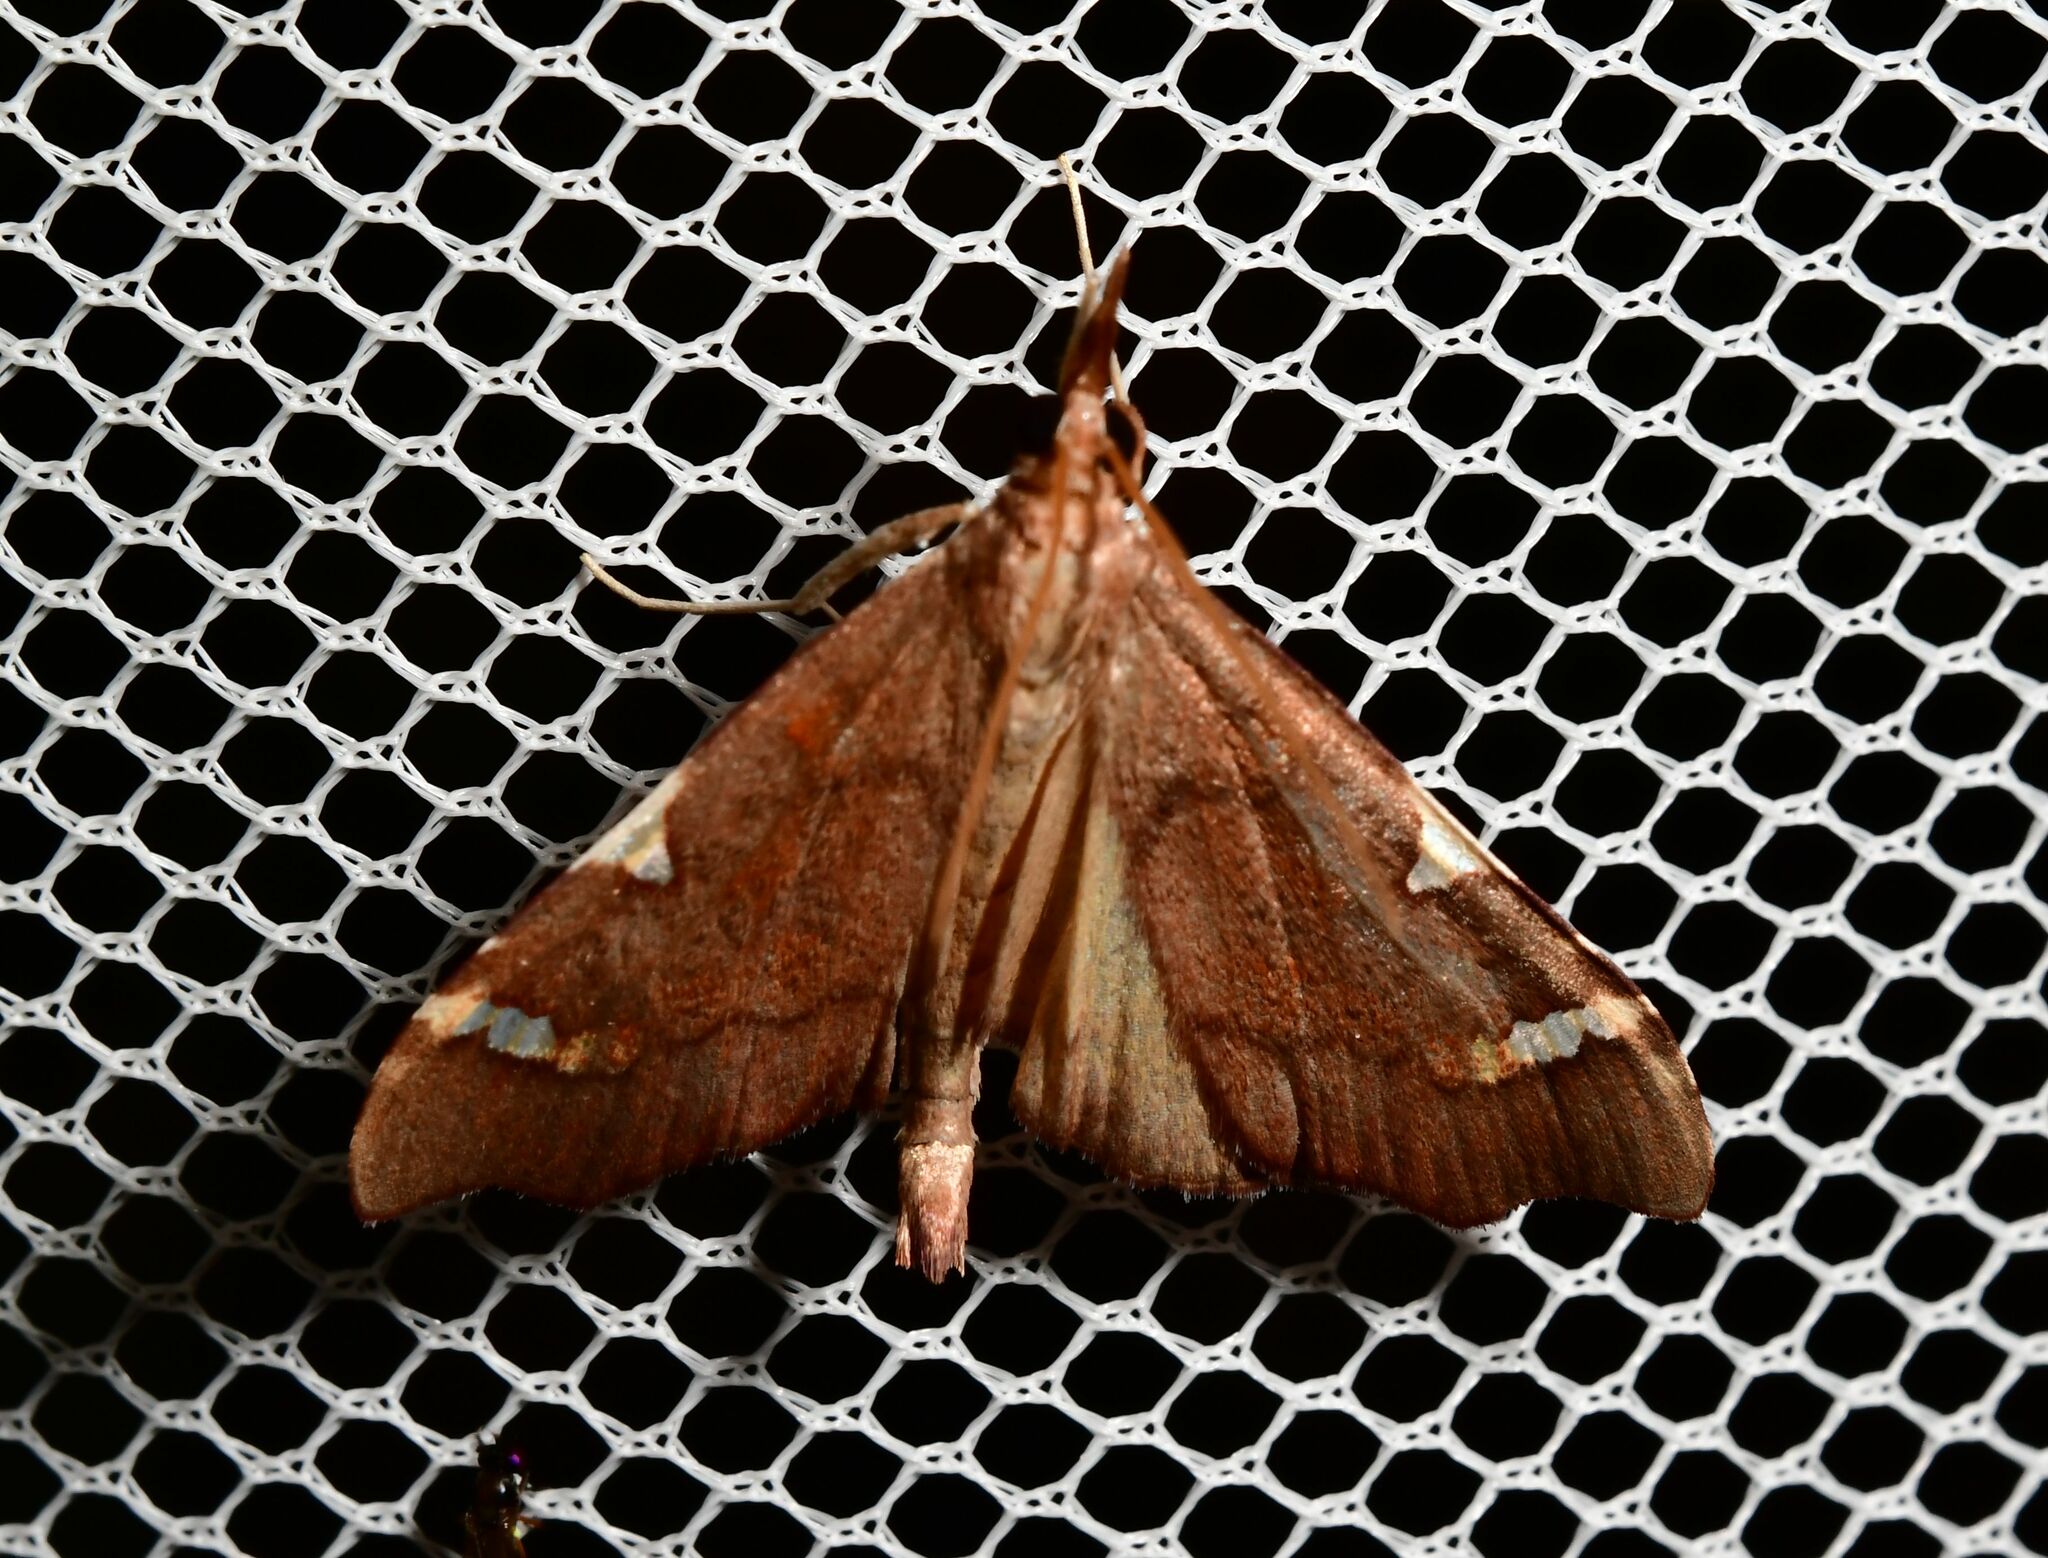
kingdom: Animalia
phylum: Arthropoda
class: Insecta
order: Lepidoptera
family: Crambidae
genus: Deana
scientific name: Deana hybreasalis
